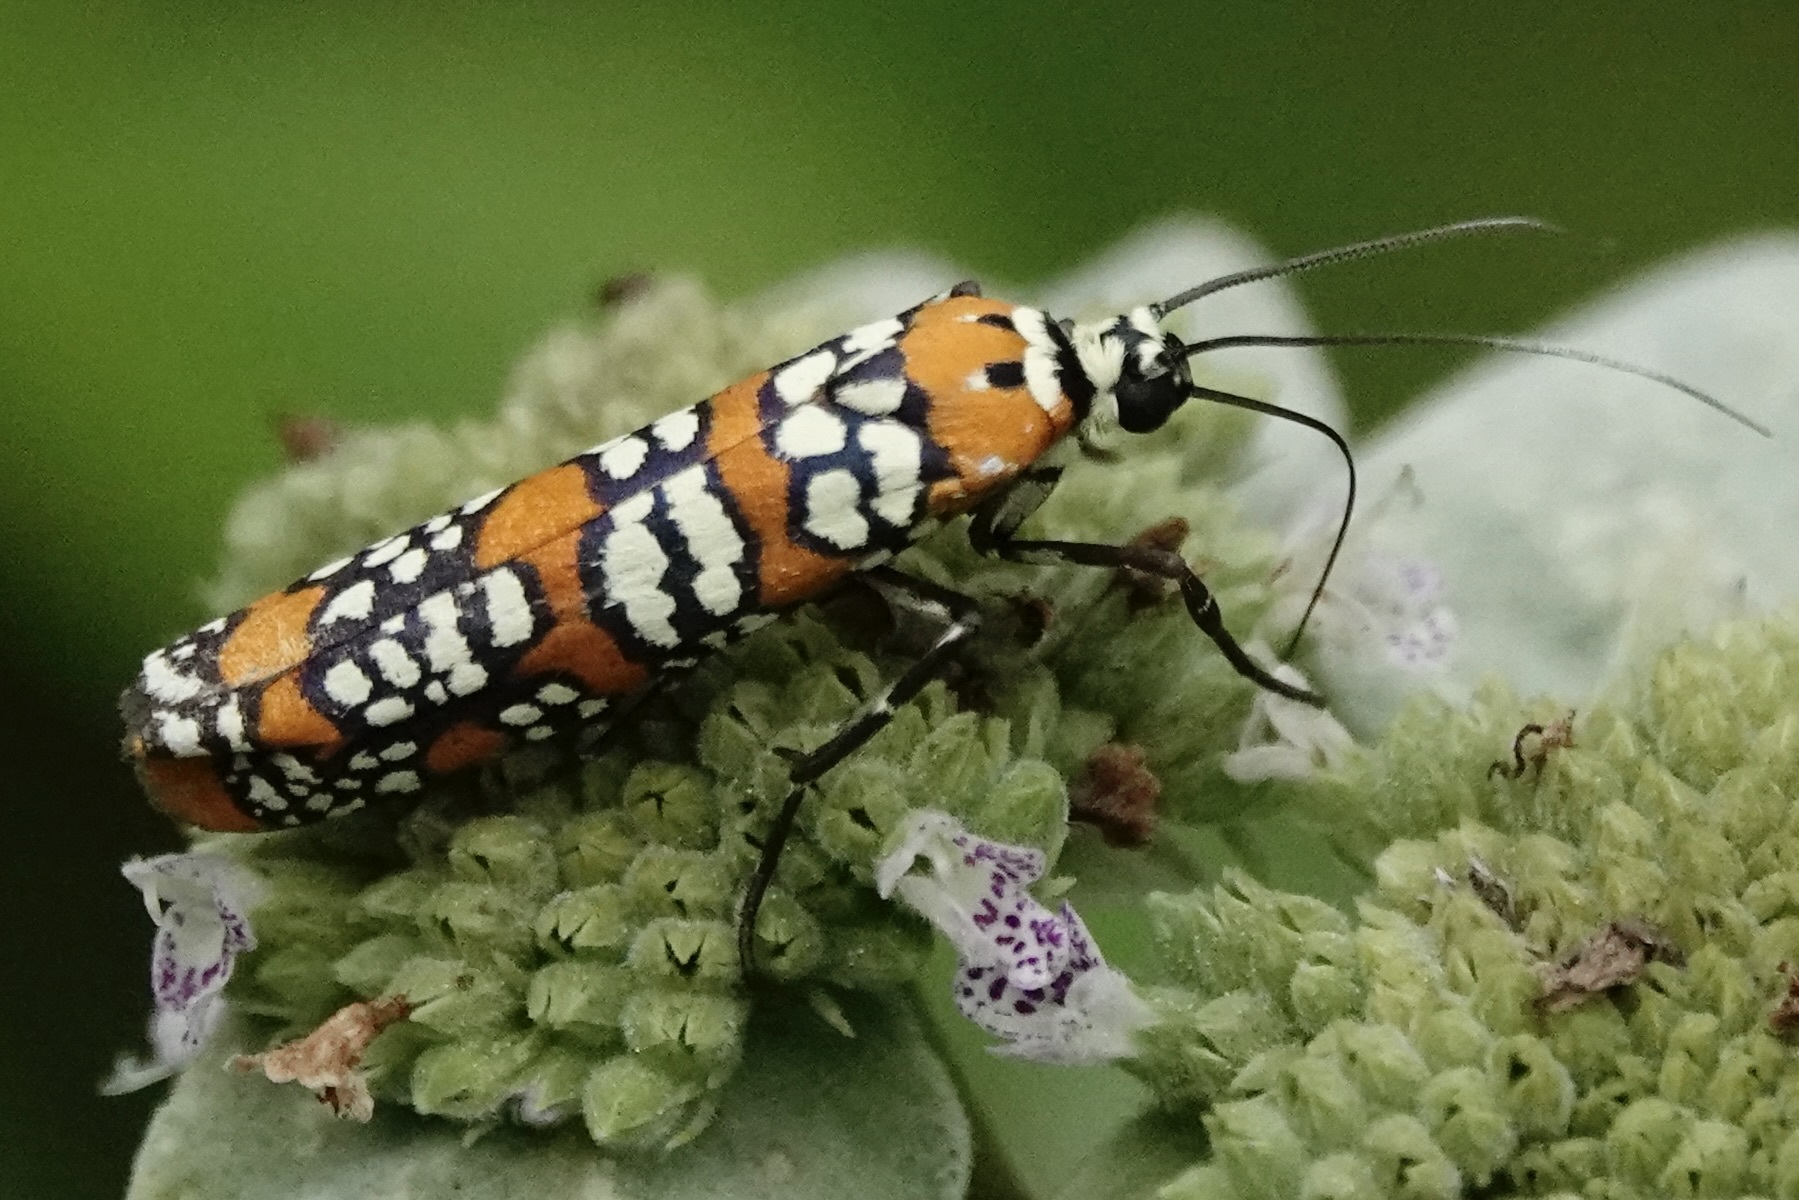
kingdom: Animalia
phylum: Arthropoda
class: Insecta
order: Lepidoptera
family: Attevidae
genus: Atteva
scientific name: Atteva punctella
